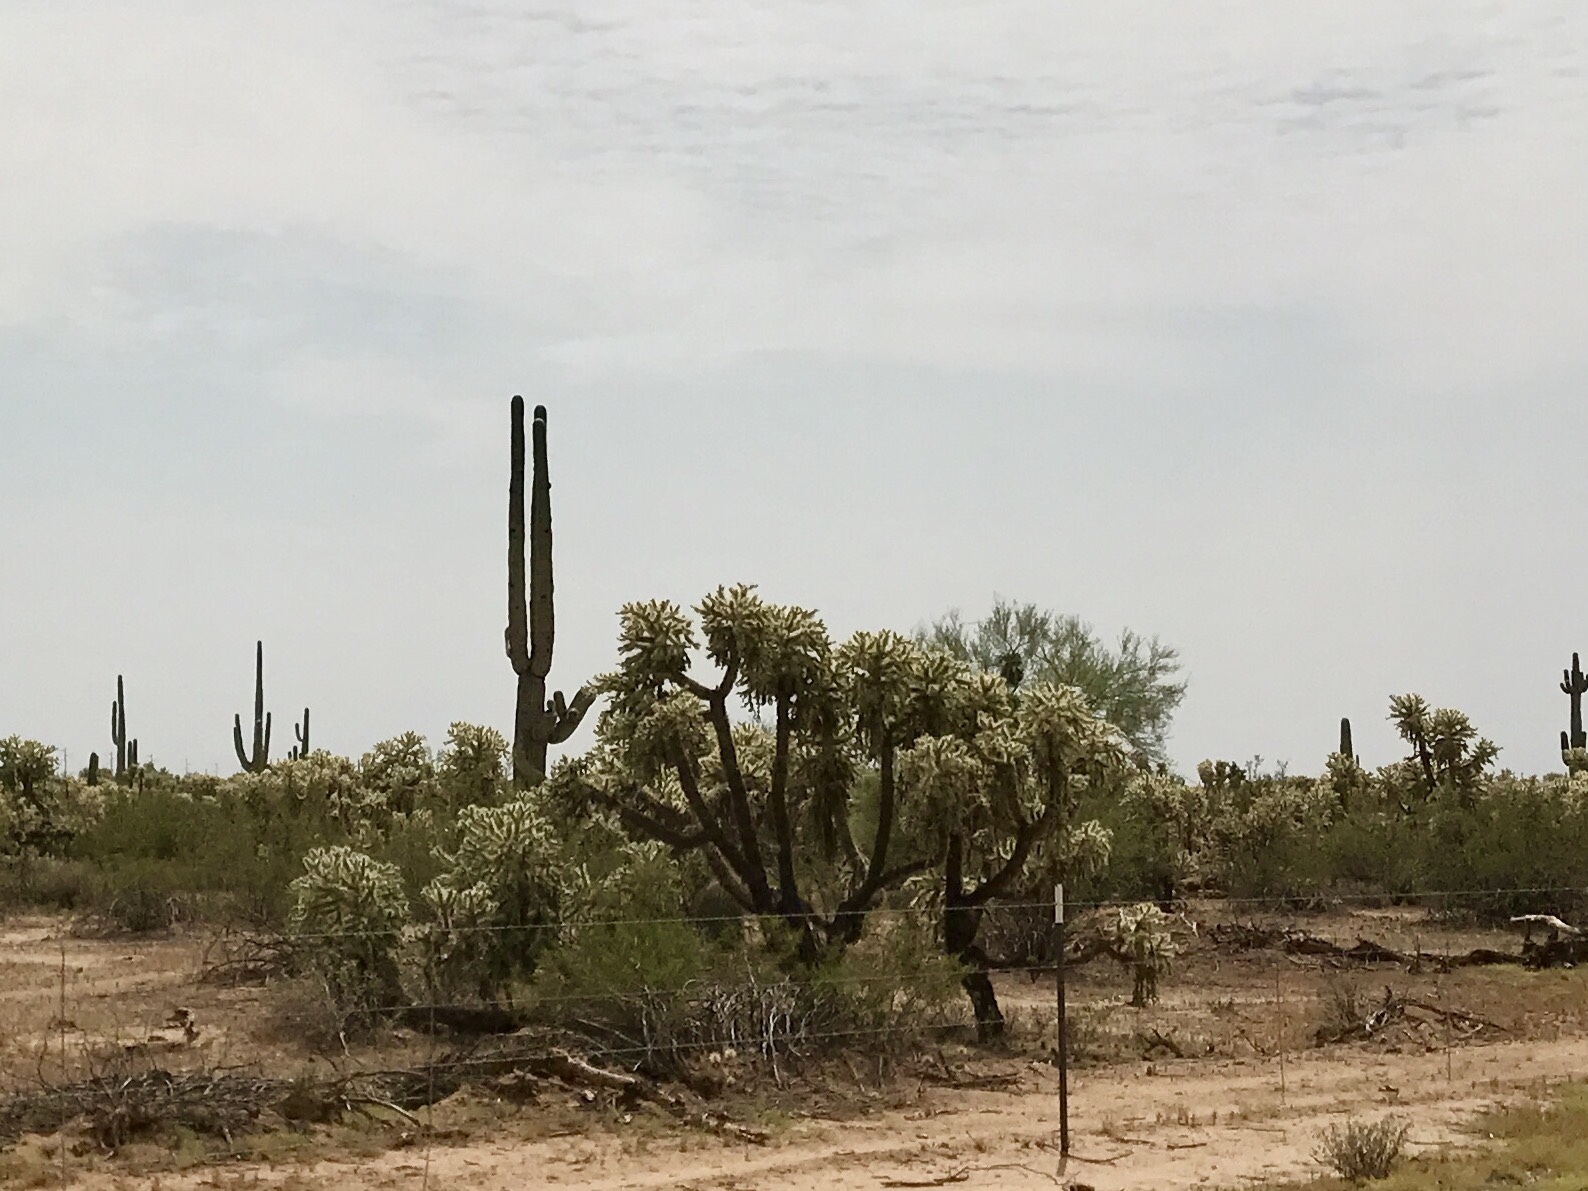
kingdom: Plantae
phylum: Tracheophyta
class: Magnoliopsida
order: Caryophyllales
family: Cactaceae
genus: Cylindropuntia
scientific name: Cylindropuntia fulgida
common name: Jumping cholla
